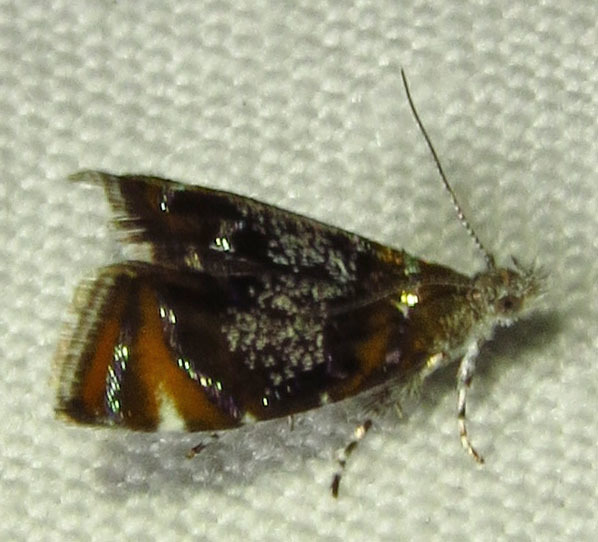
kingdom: Animalia
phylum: Arthropoda
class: Insecta
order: Lepidoptera
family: Choreutidae
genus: Prochoreutis
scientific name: Prochoreutis inflatella
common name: Skullcap skeletonizer moth
